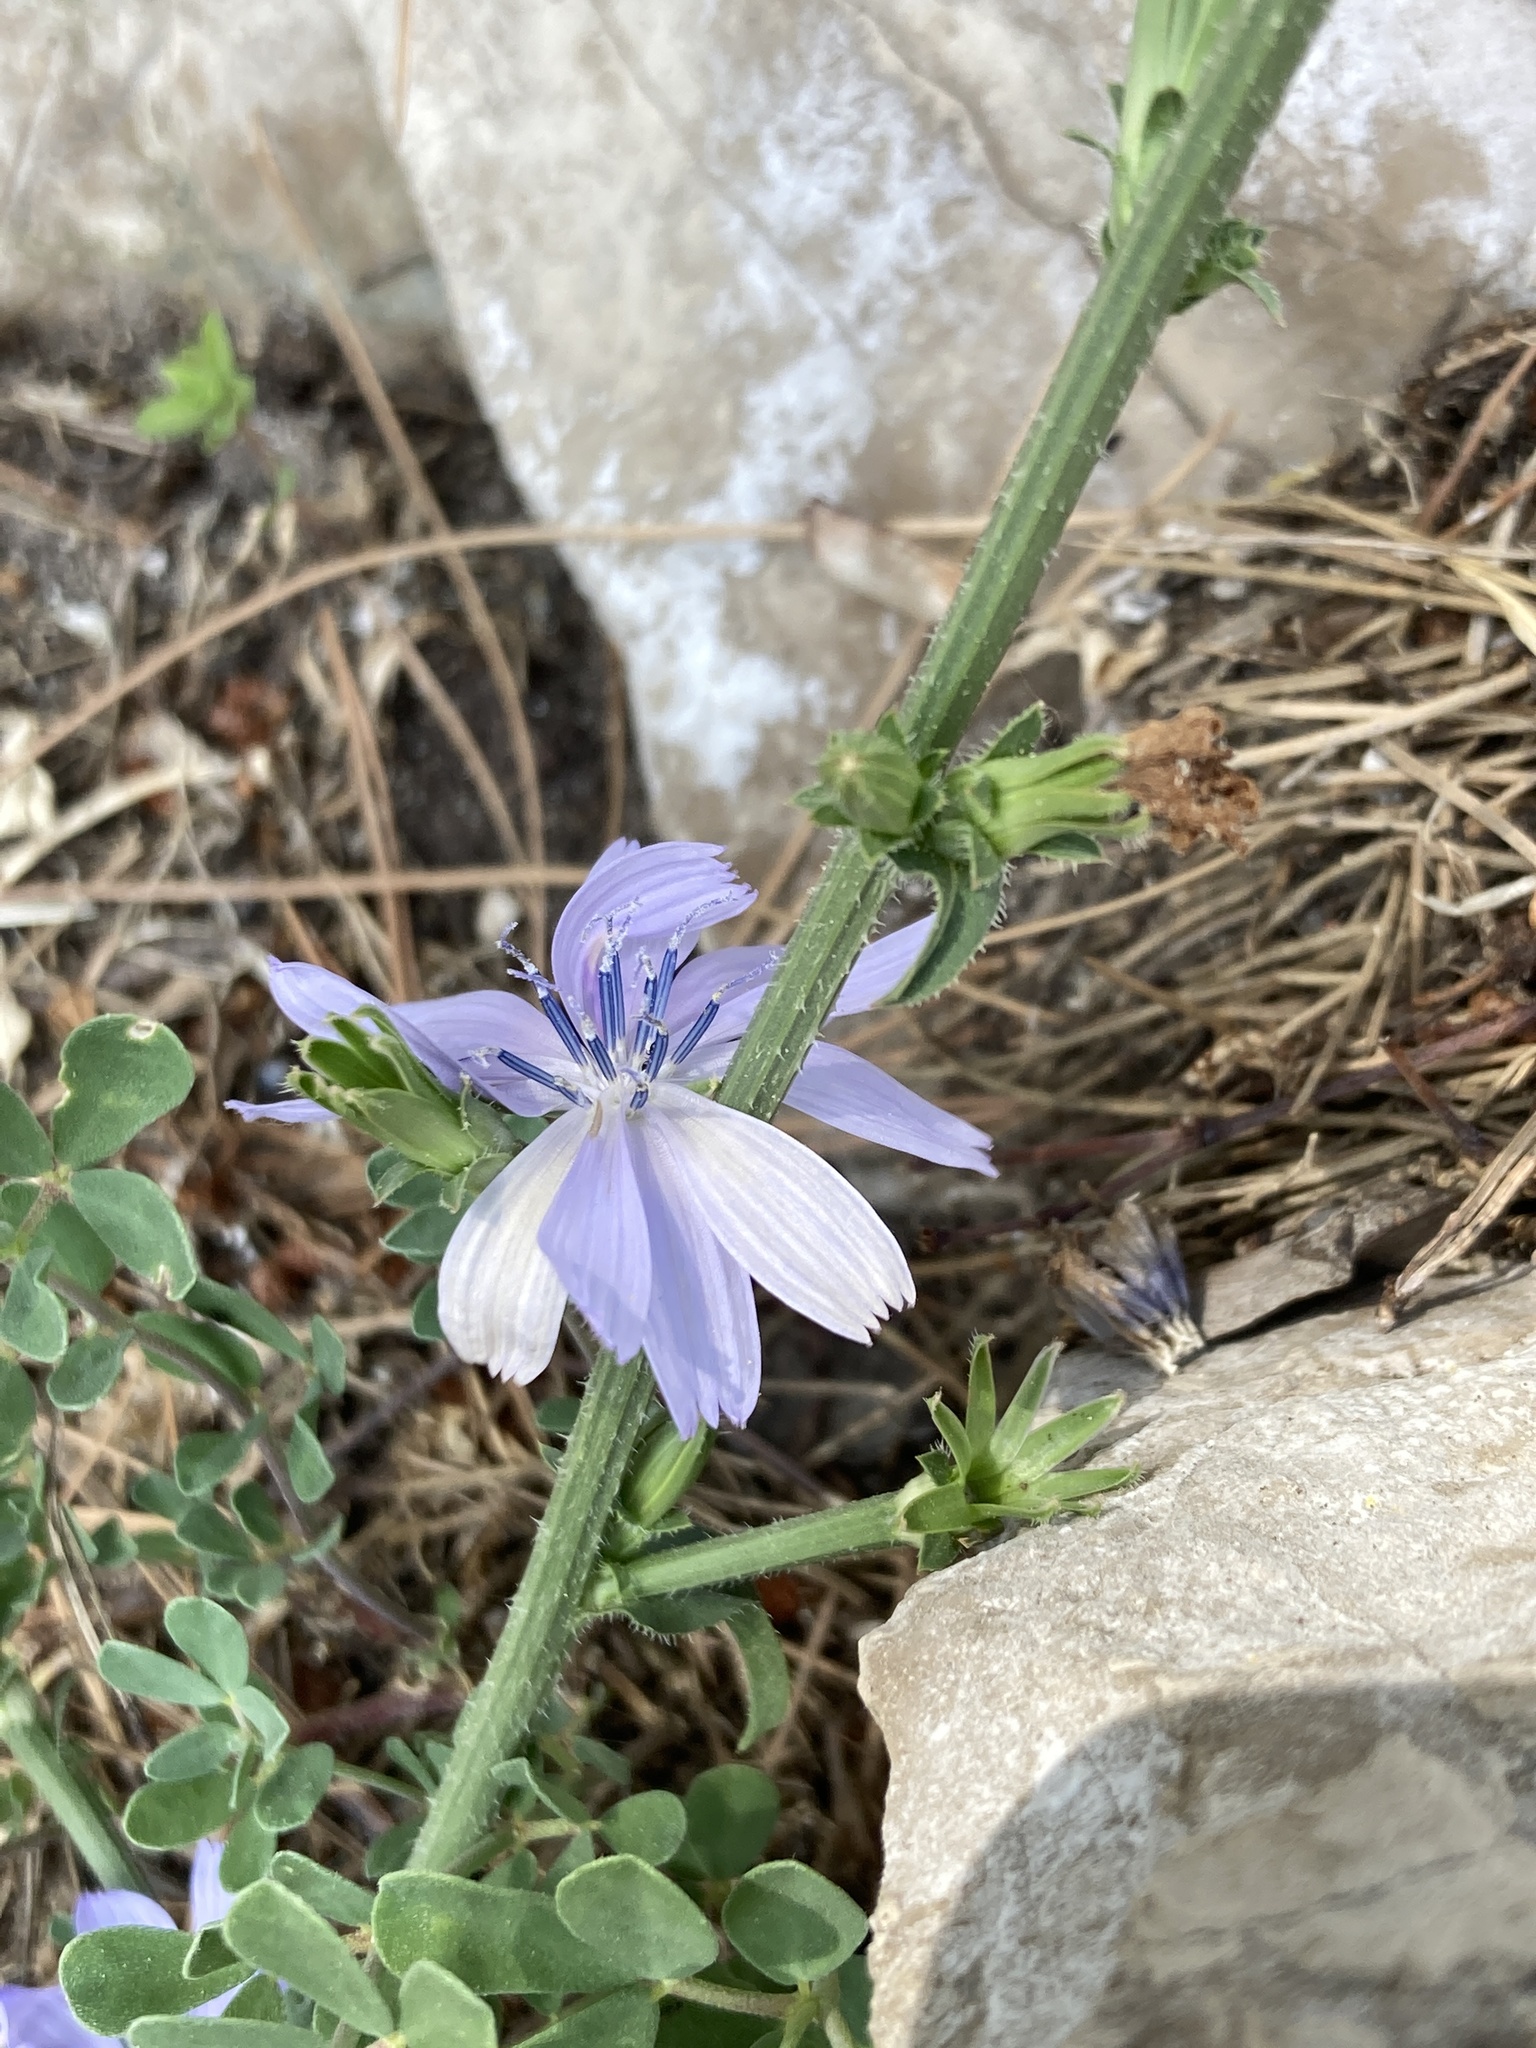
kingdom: Plantae
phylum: Tracheophyta
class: Magnoliopsida
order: Asterales
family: Asteraceae
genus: Cichorium
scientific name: Cichorium intybus
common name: Chicory
